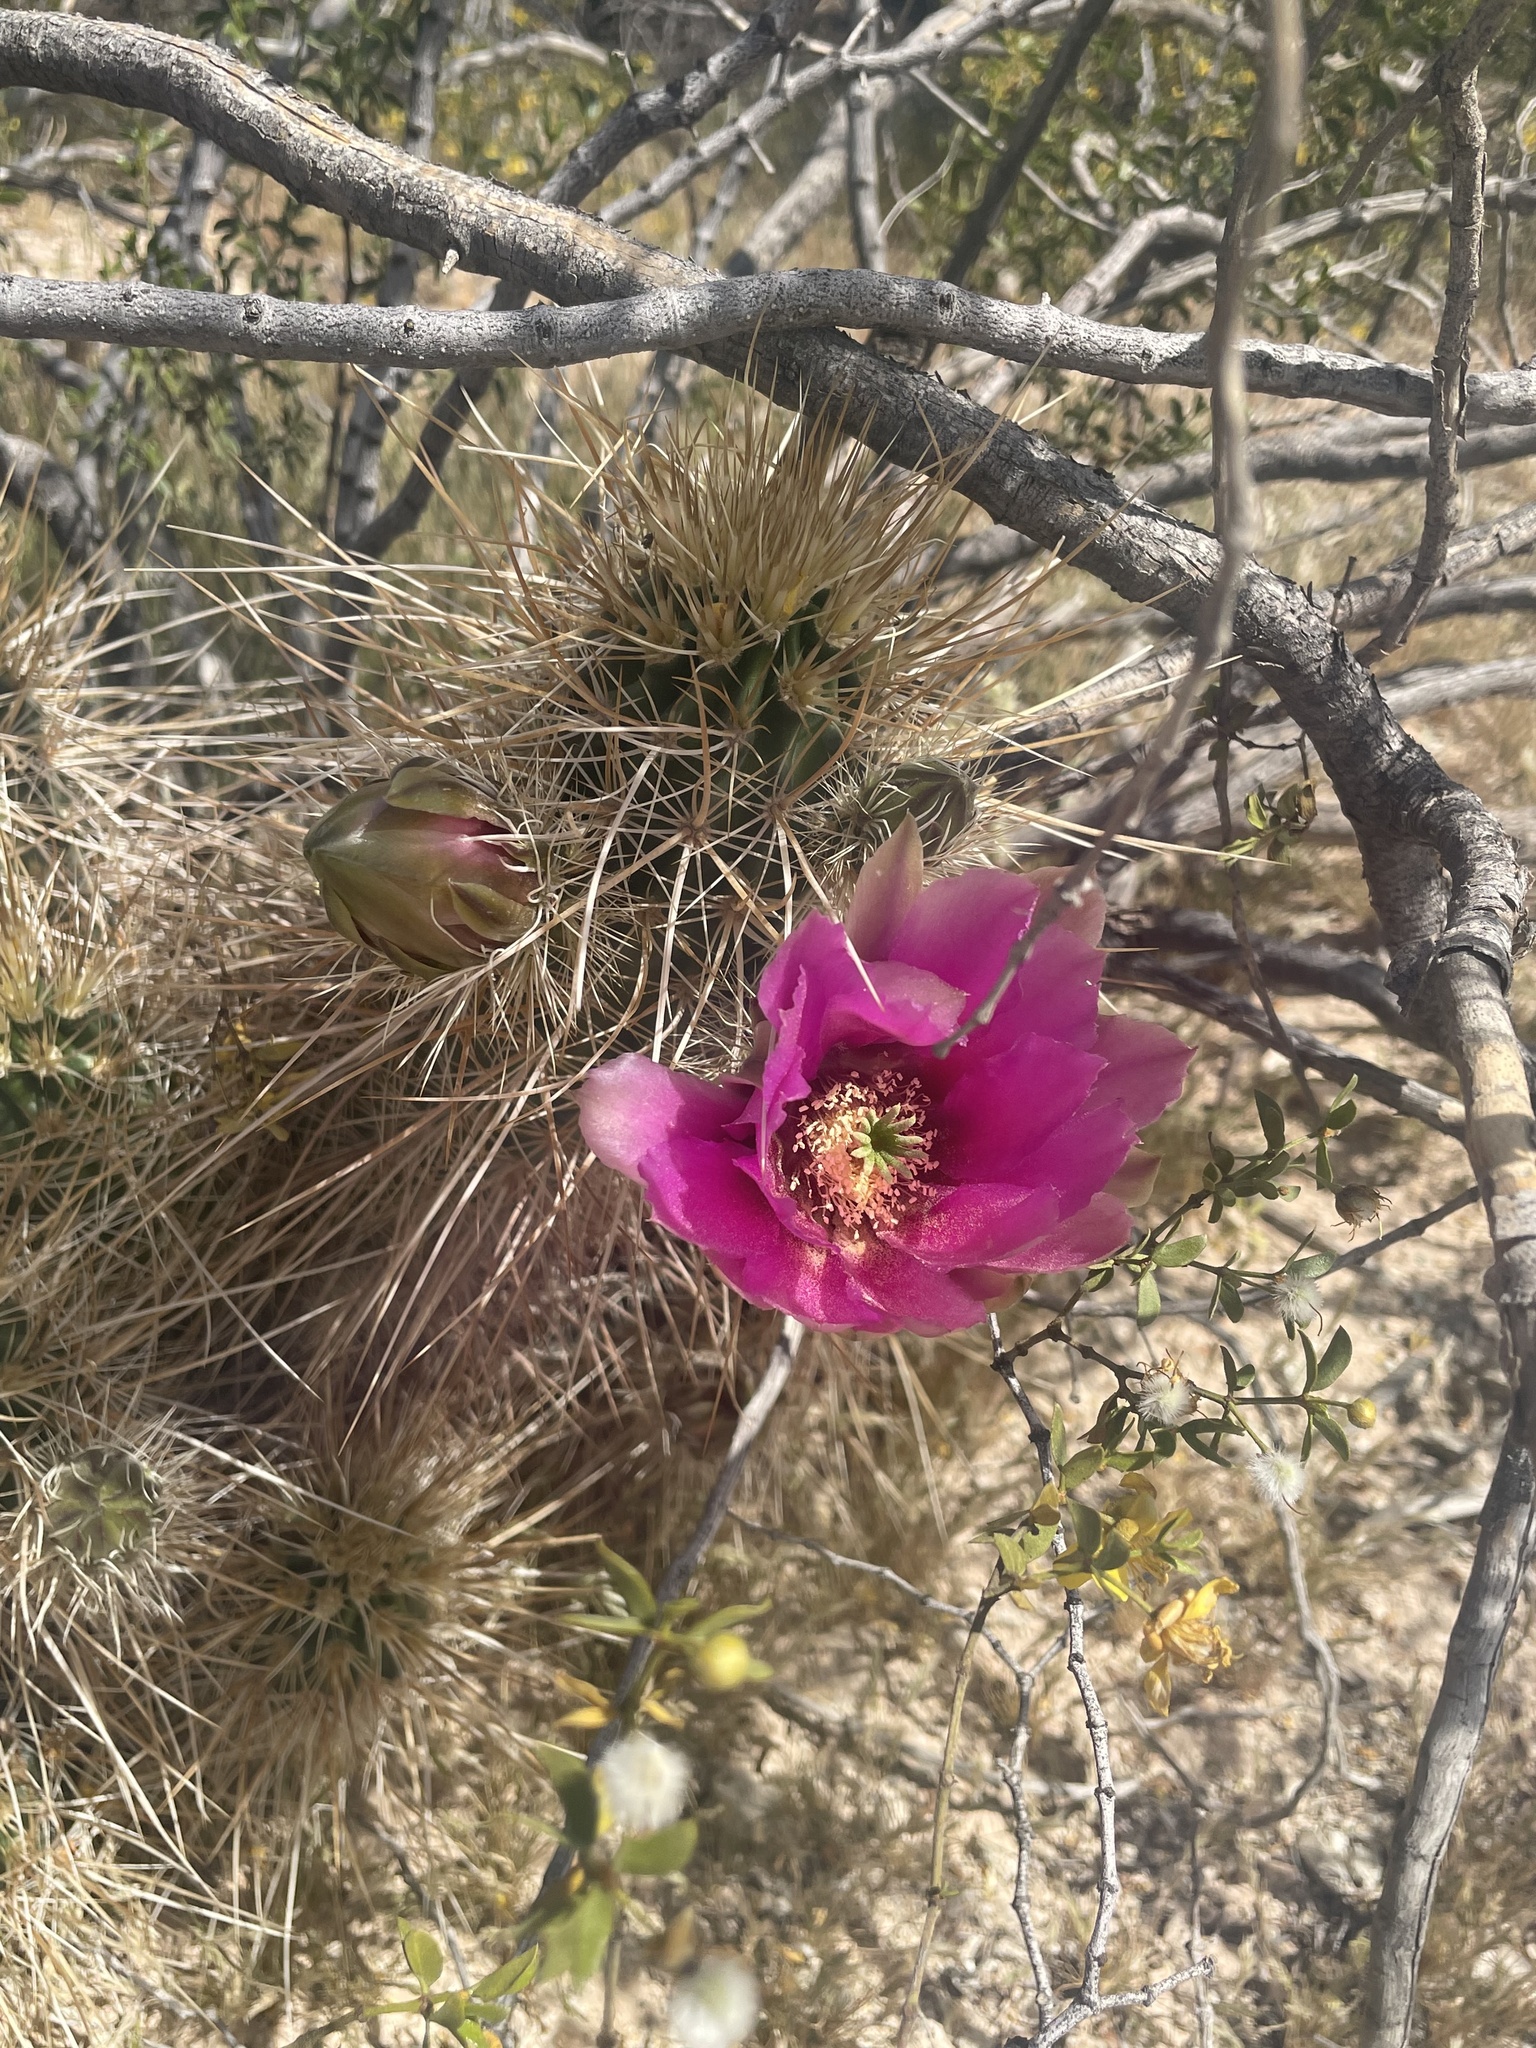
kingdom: Plantae
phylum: Tracheophyta
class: Magnoliopsida
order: Caryophyllales
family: Cactaceae
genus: Echinocereus
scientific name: Echinocereus engelmannii
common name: Engelmann's hedgehog cactus
